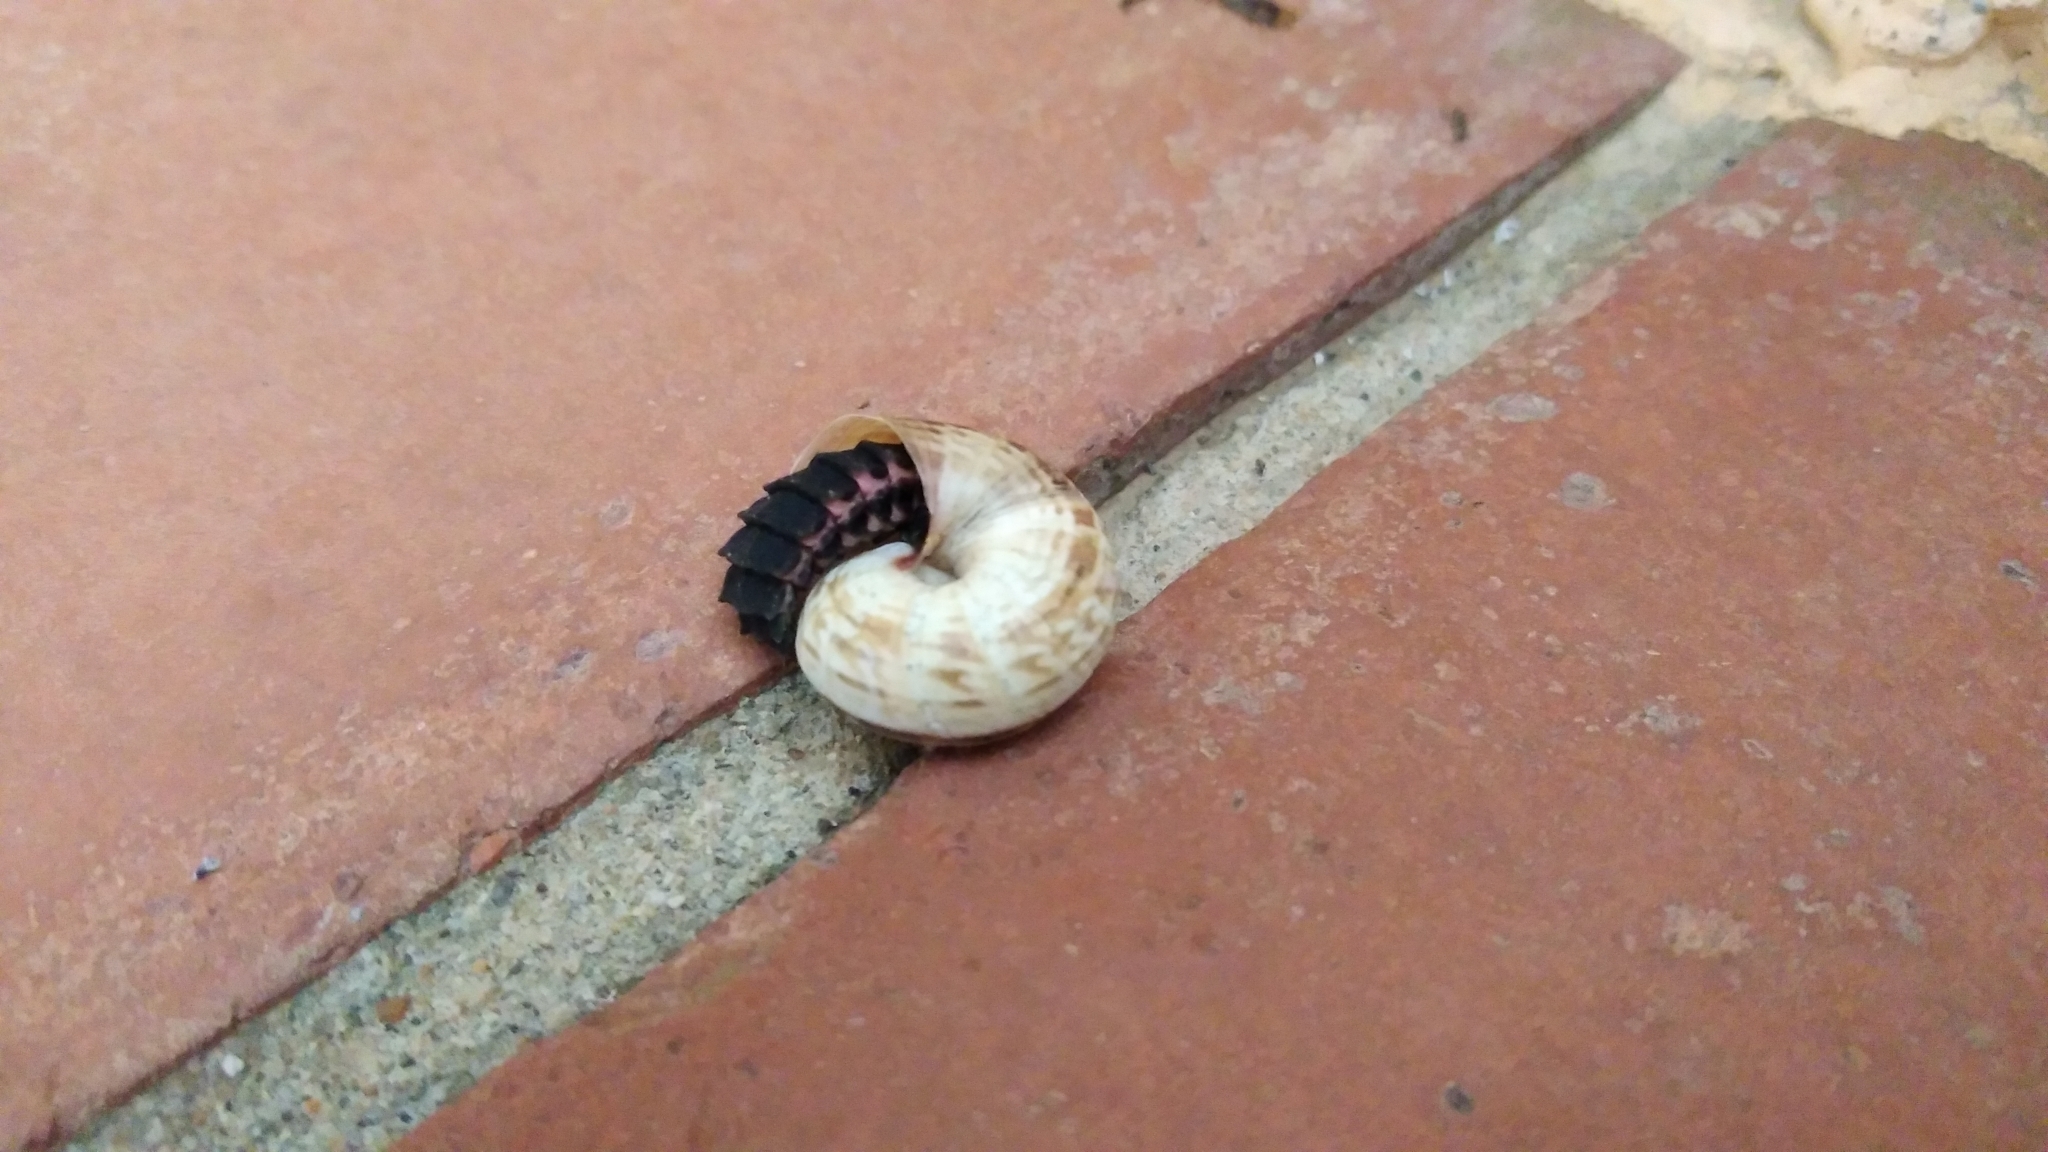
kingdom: Animalia
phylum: Arthropoda
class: Insecta
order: Coleoptera
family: Lampyridae
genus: Nyctophila
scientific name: Nyctophila reichii
